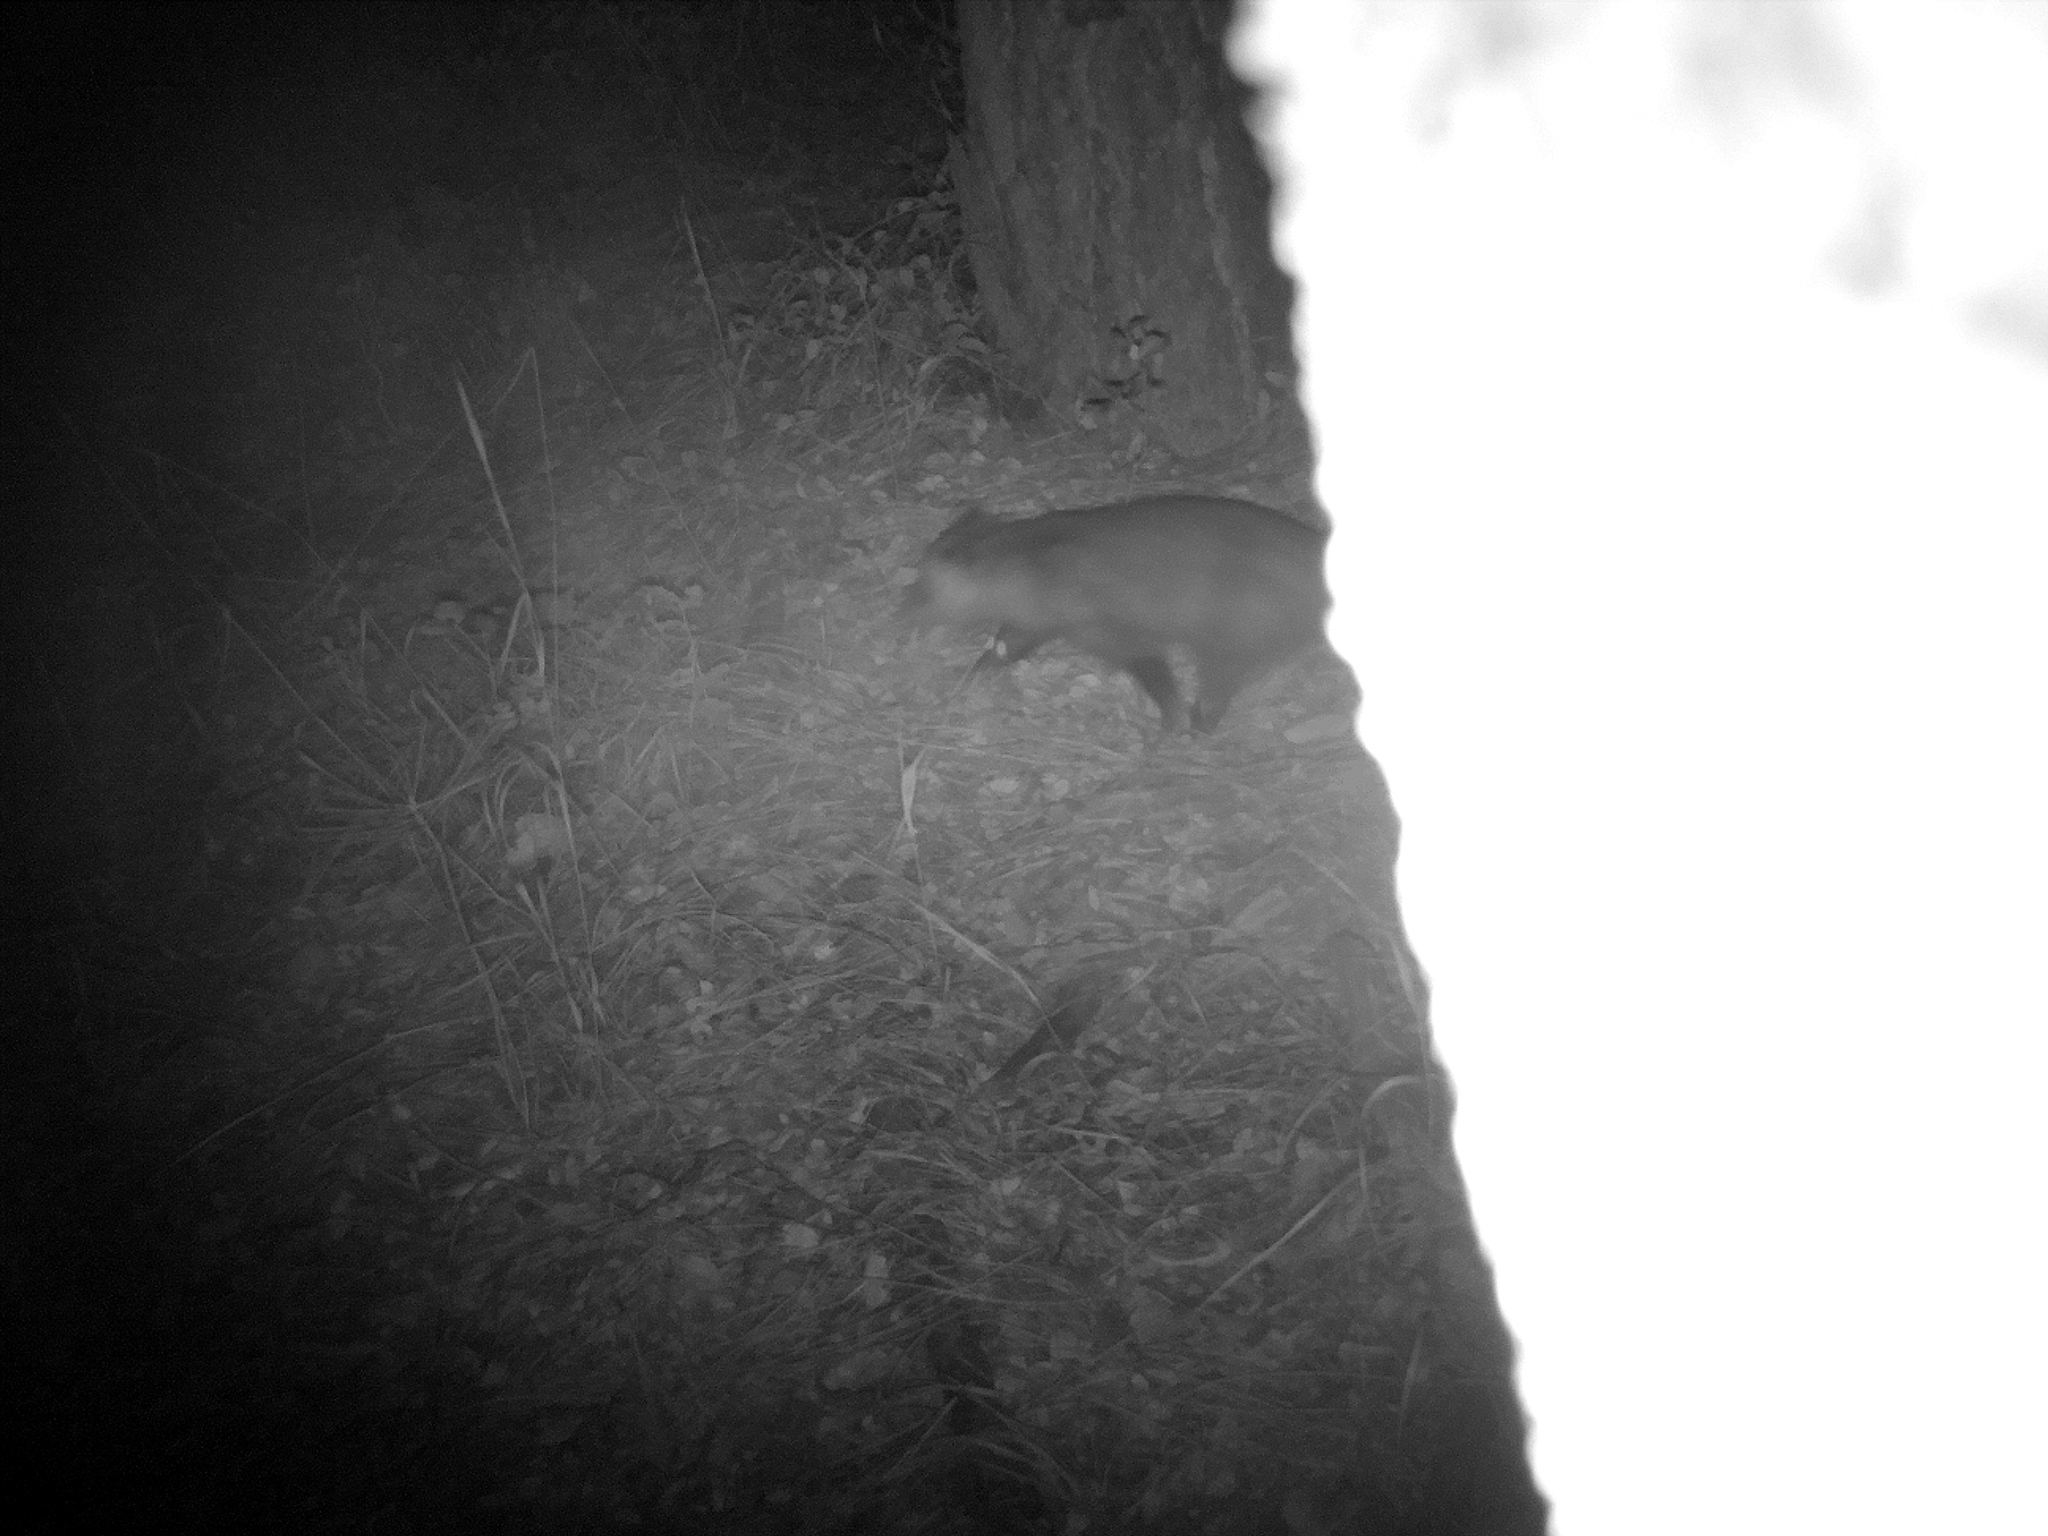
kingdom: Animalia
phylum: Chordata
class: Mammalia
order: Didelphimorphia
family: Didelphidae
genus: Didelphis
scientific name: Didelphis virginiana
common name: Virginia opossum
